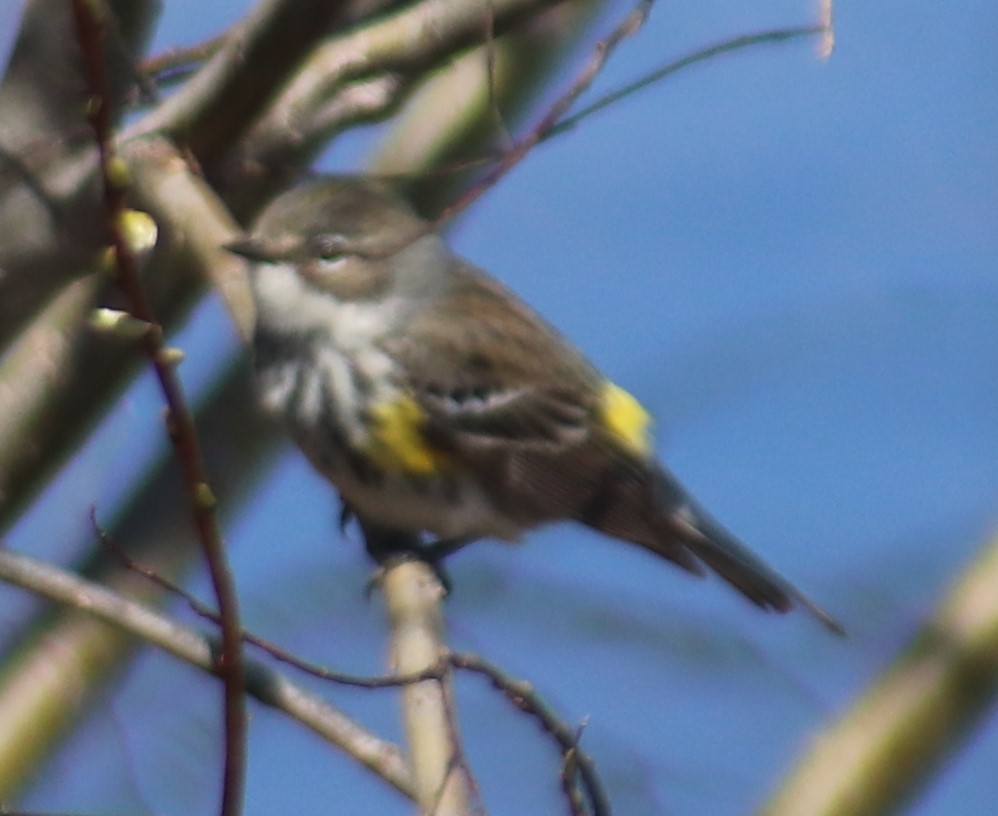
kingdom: Animalia
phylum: Chordata
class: Aves
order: Passeriformes
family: Parulidae
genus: Setophaga
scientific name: Setophaga coronata
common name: Myrtle warbler
